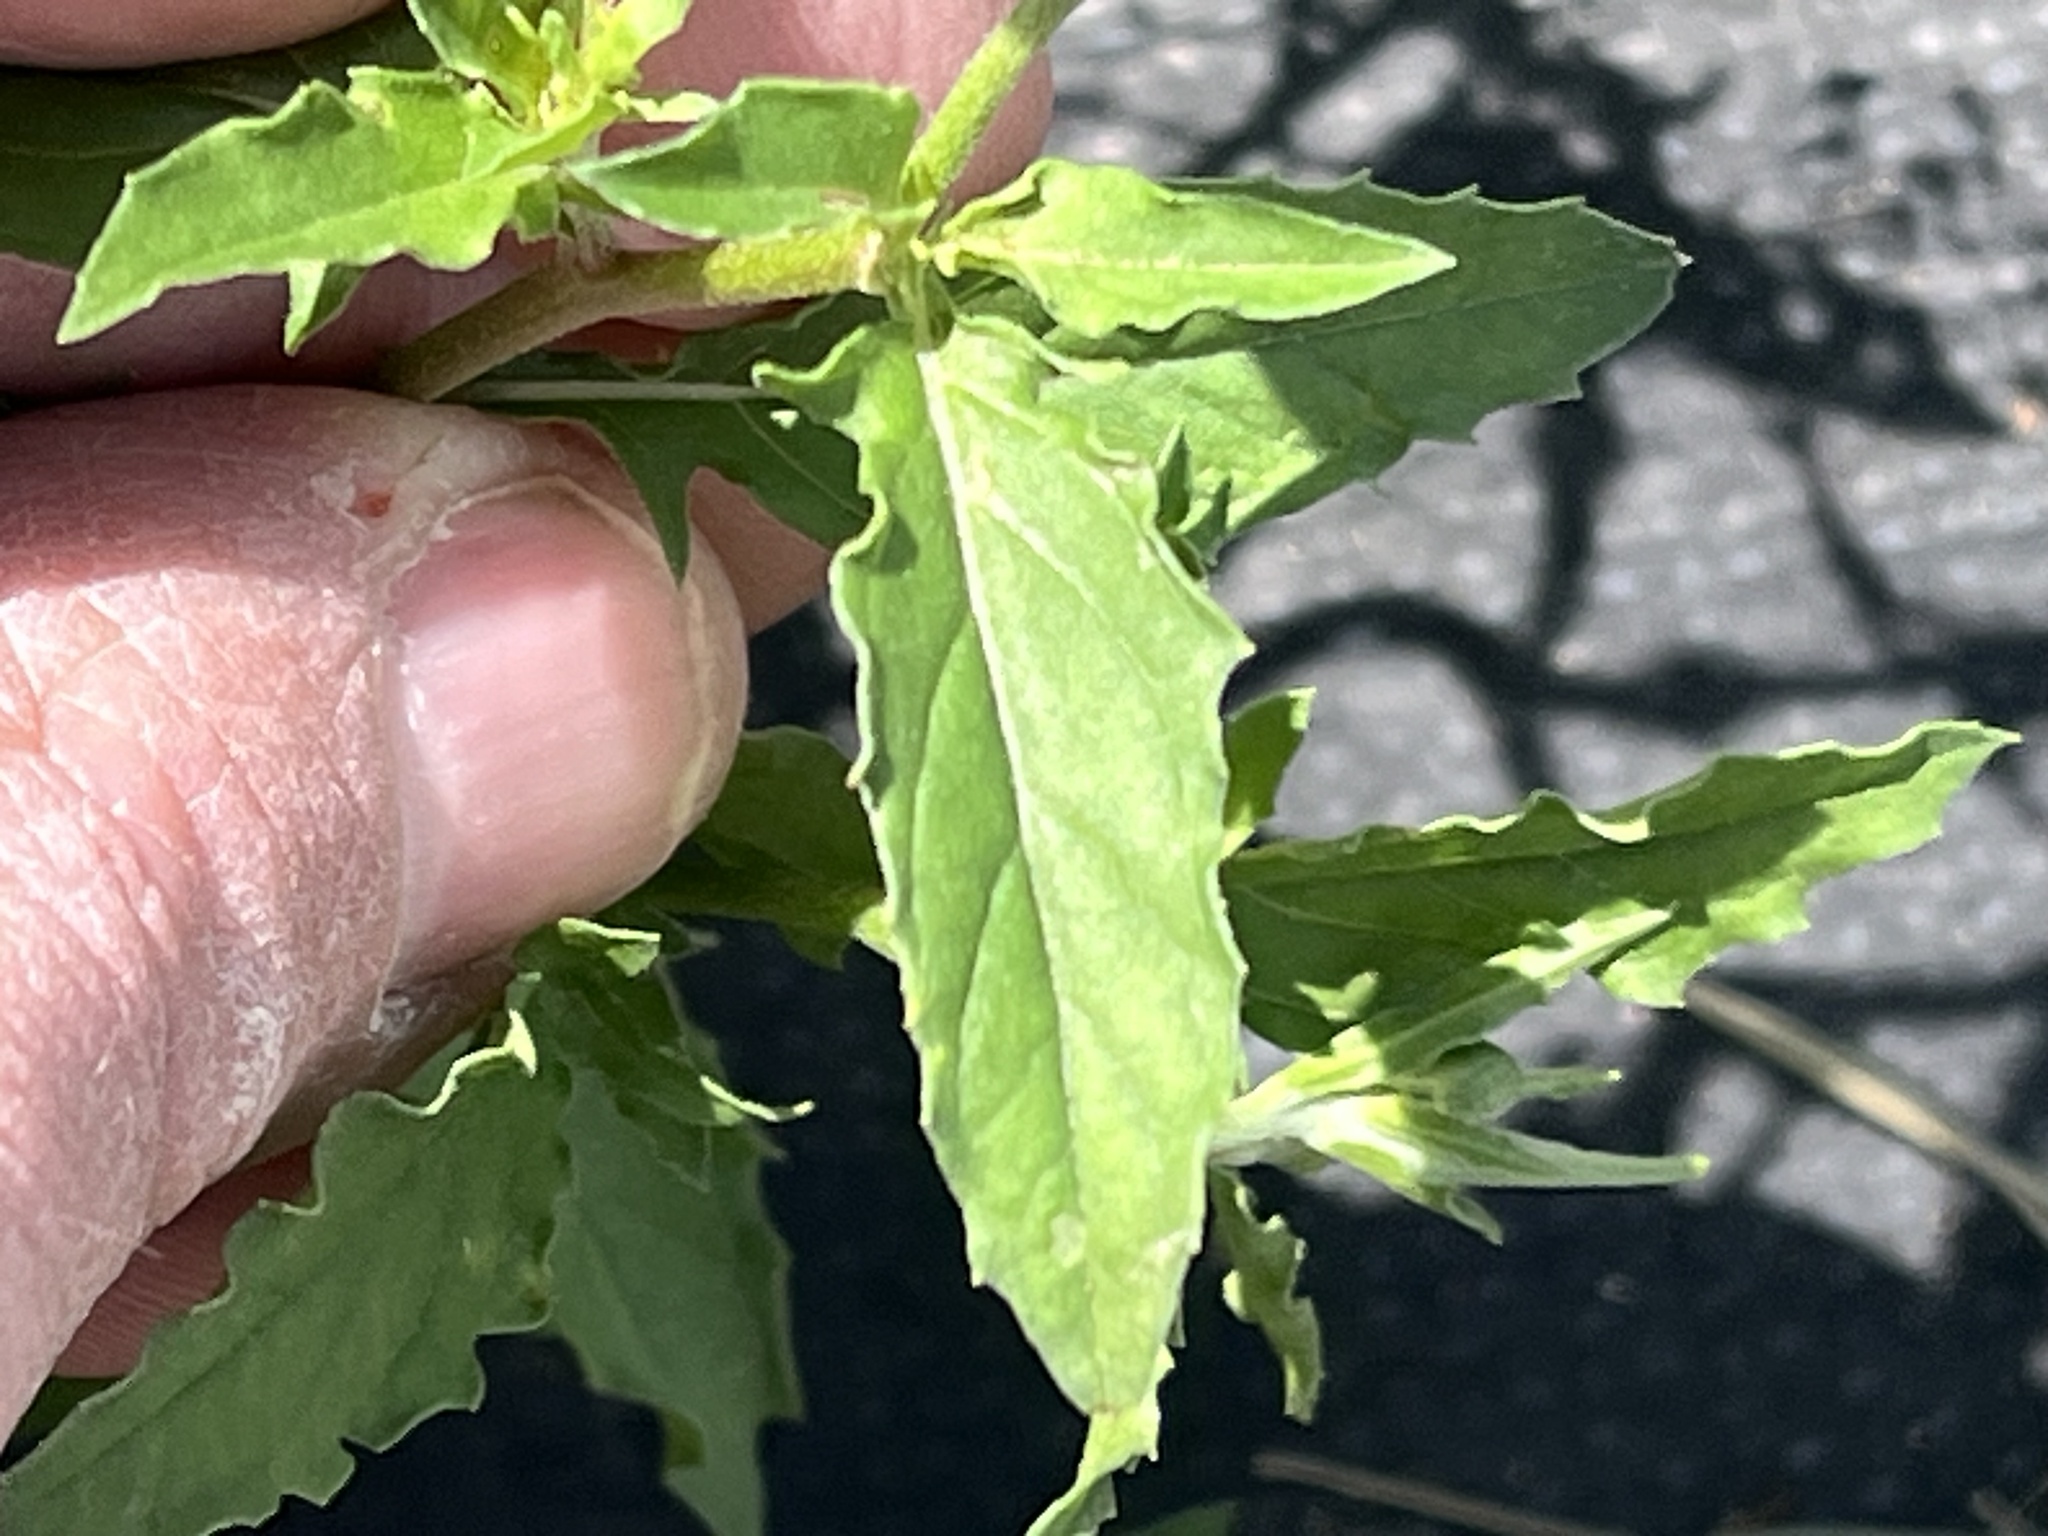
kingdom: Plantae
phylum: Tracheophyta
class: Magnoliopsida
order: Myrtales
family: Onagraceae
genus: Oenothera
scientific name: Oenothera speciosa
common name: White evening-primrose
